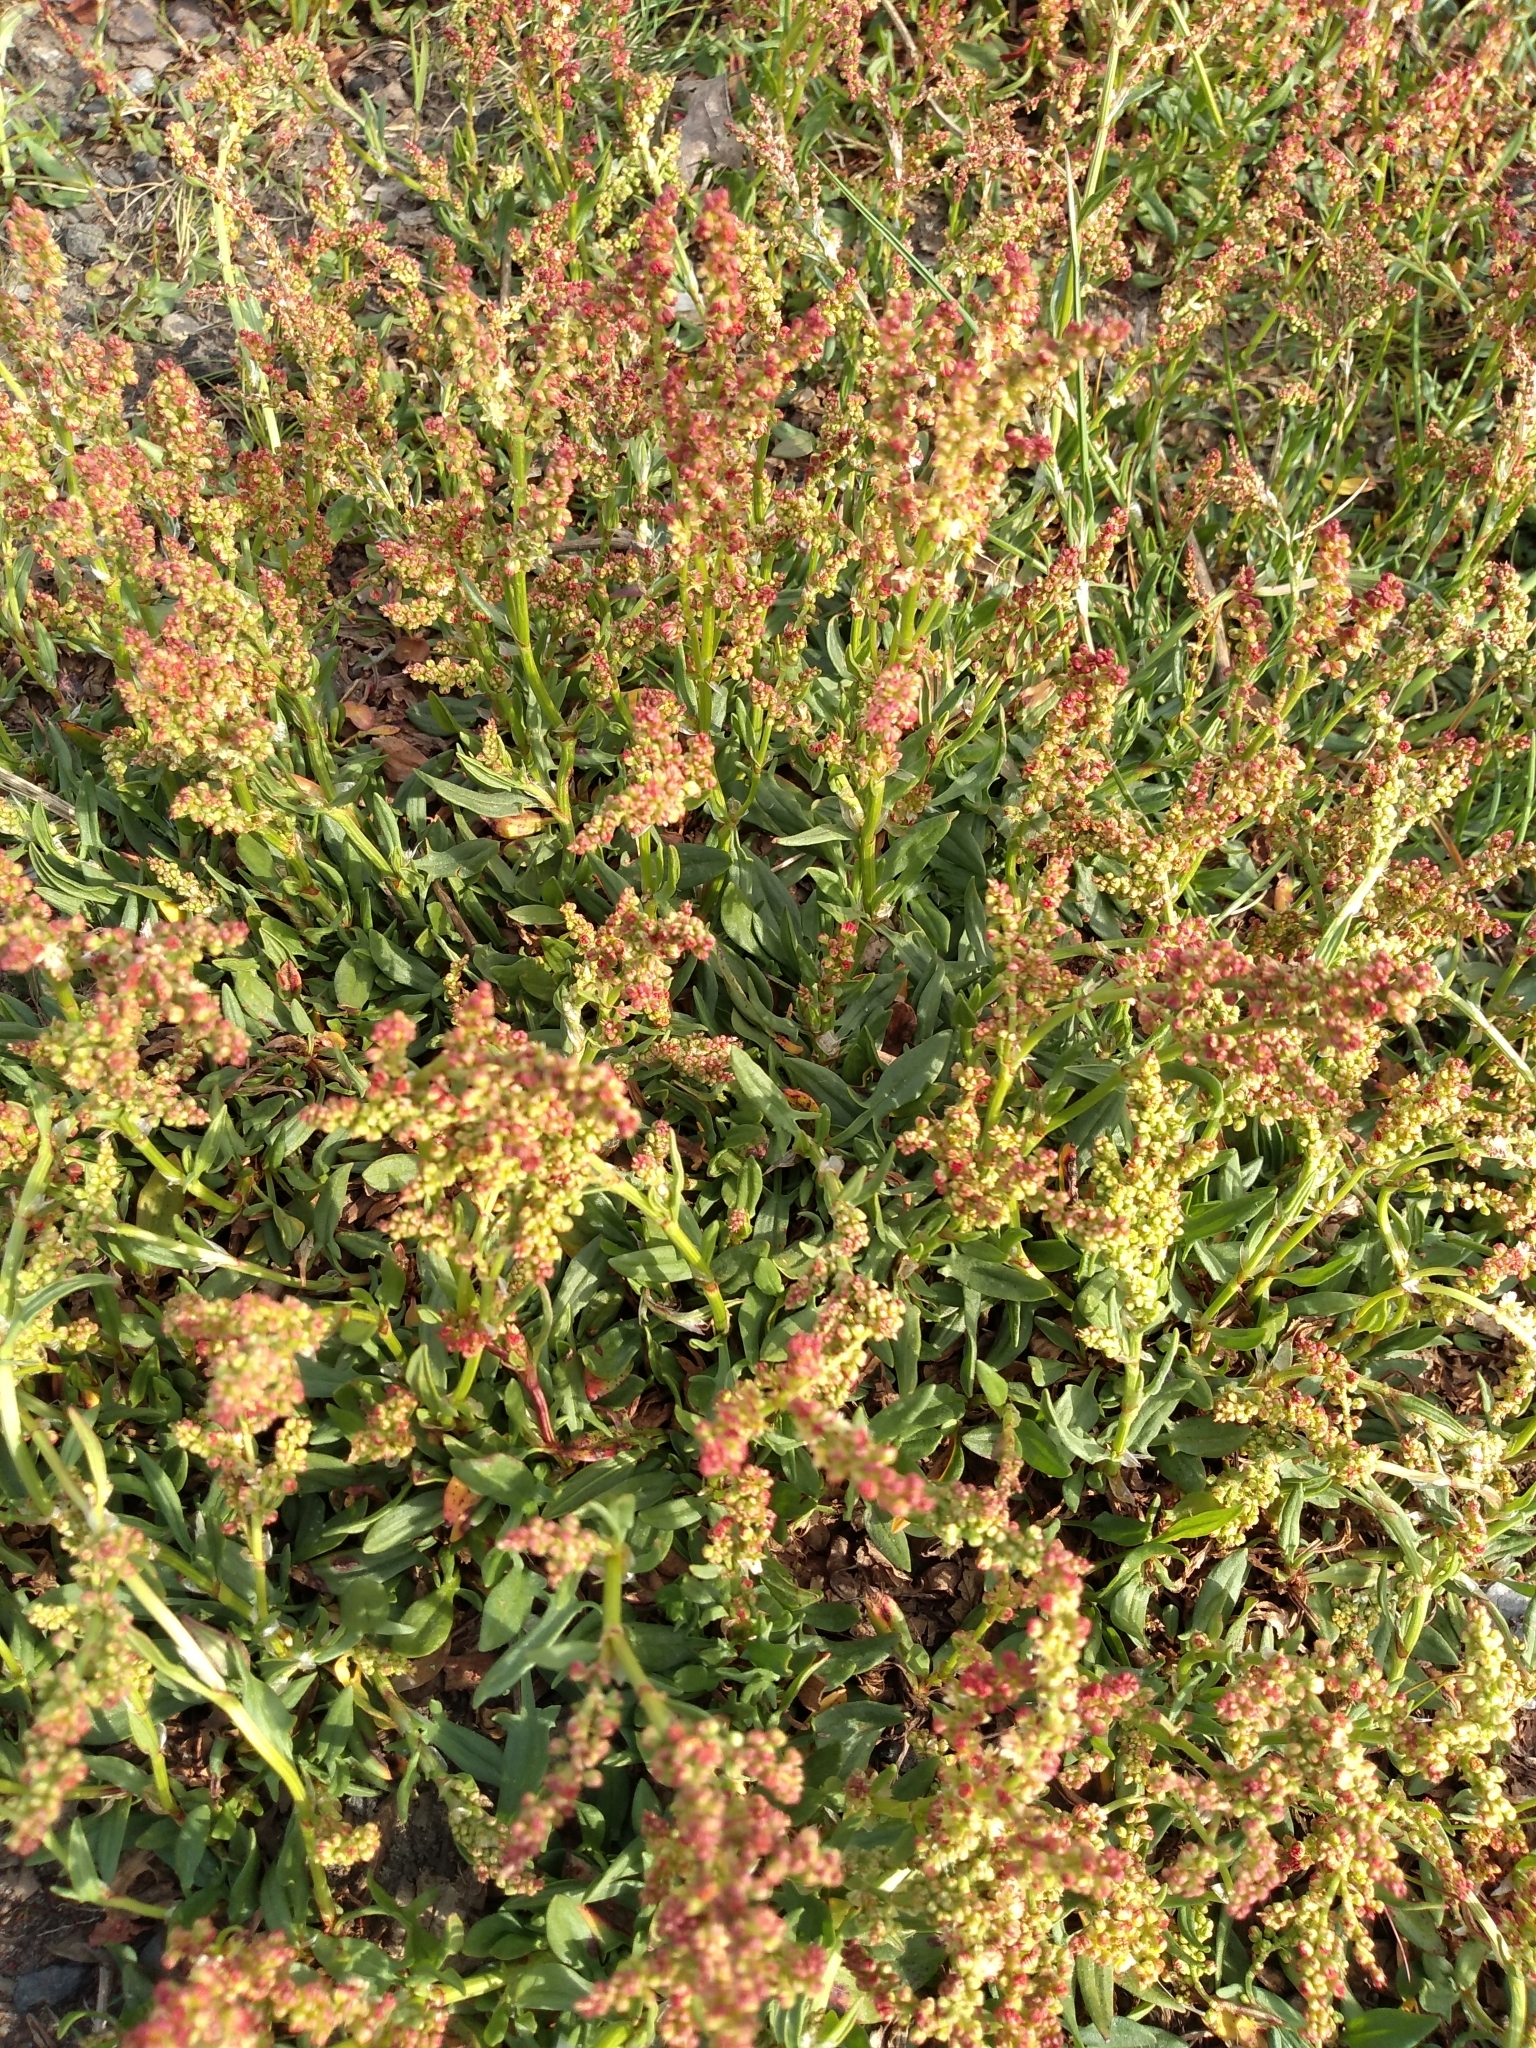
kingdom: Plantae
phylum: Tracheophyta
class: Magnoliopsida
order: Caryophyllales
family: Polygonaceae
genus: Rumex
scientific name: Rumex acetosella
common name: Common sheep sorrel
